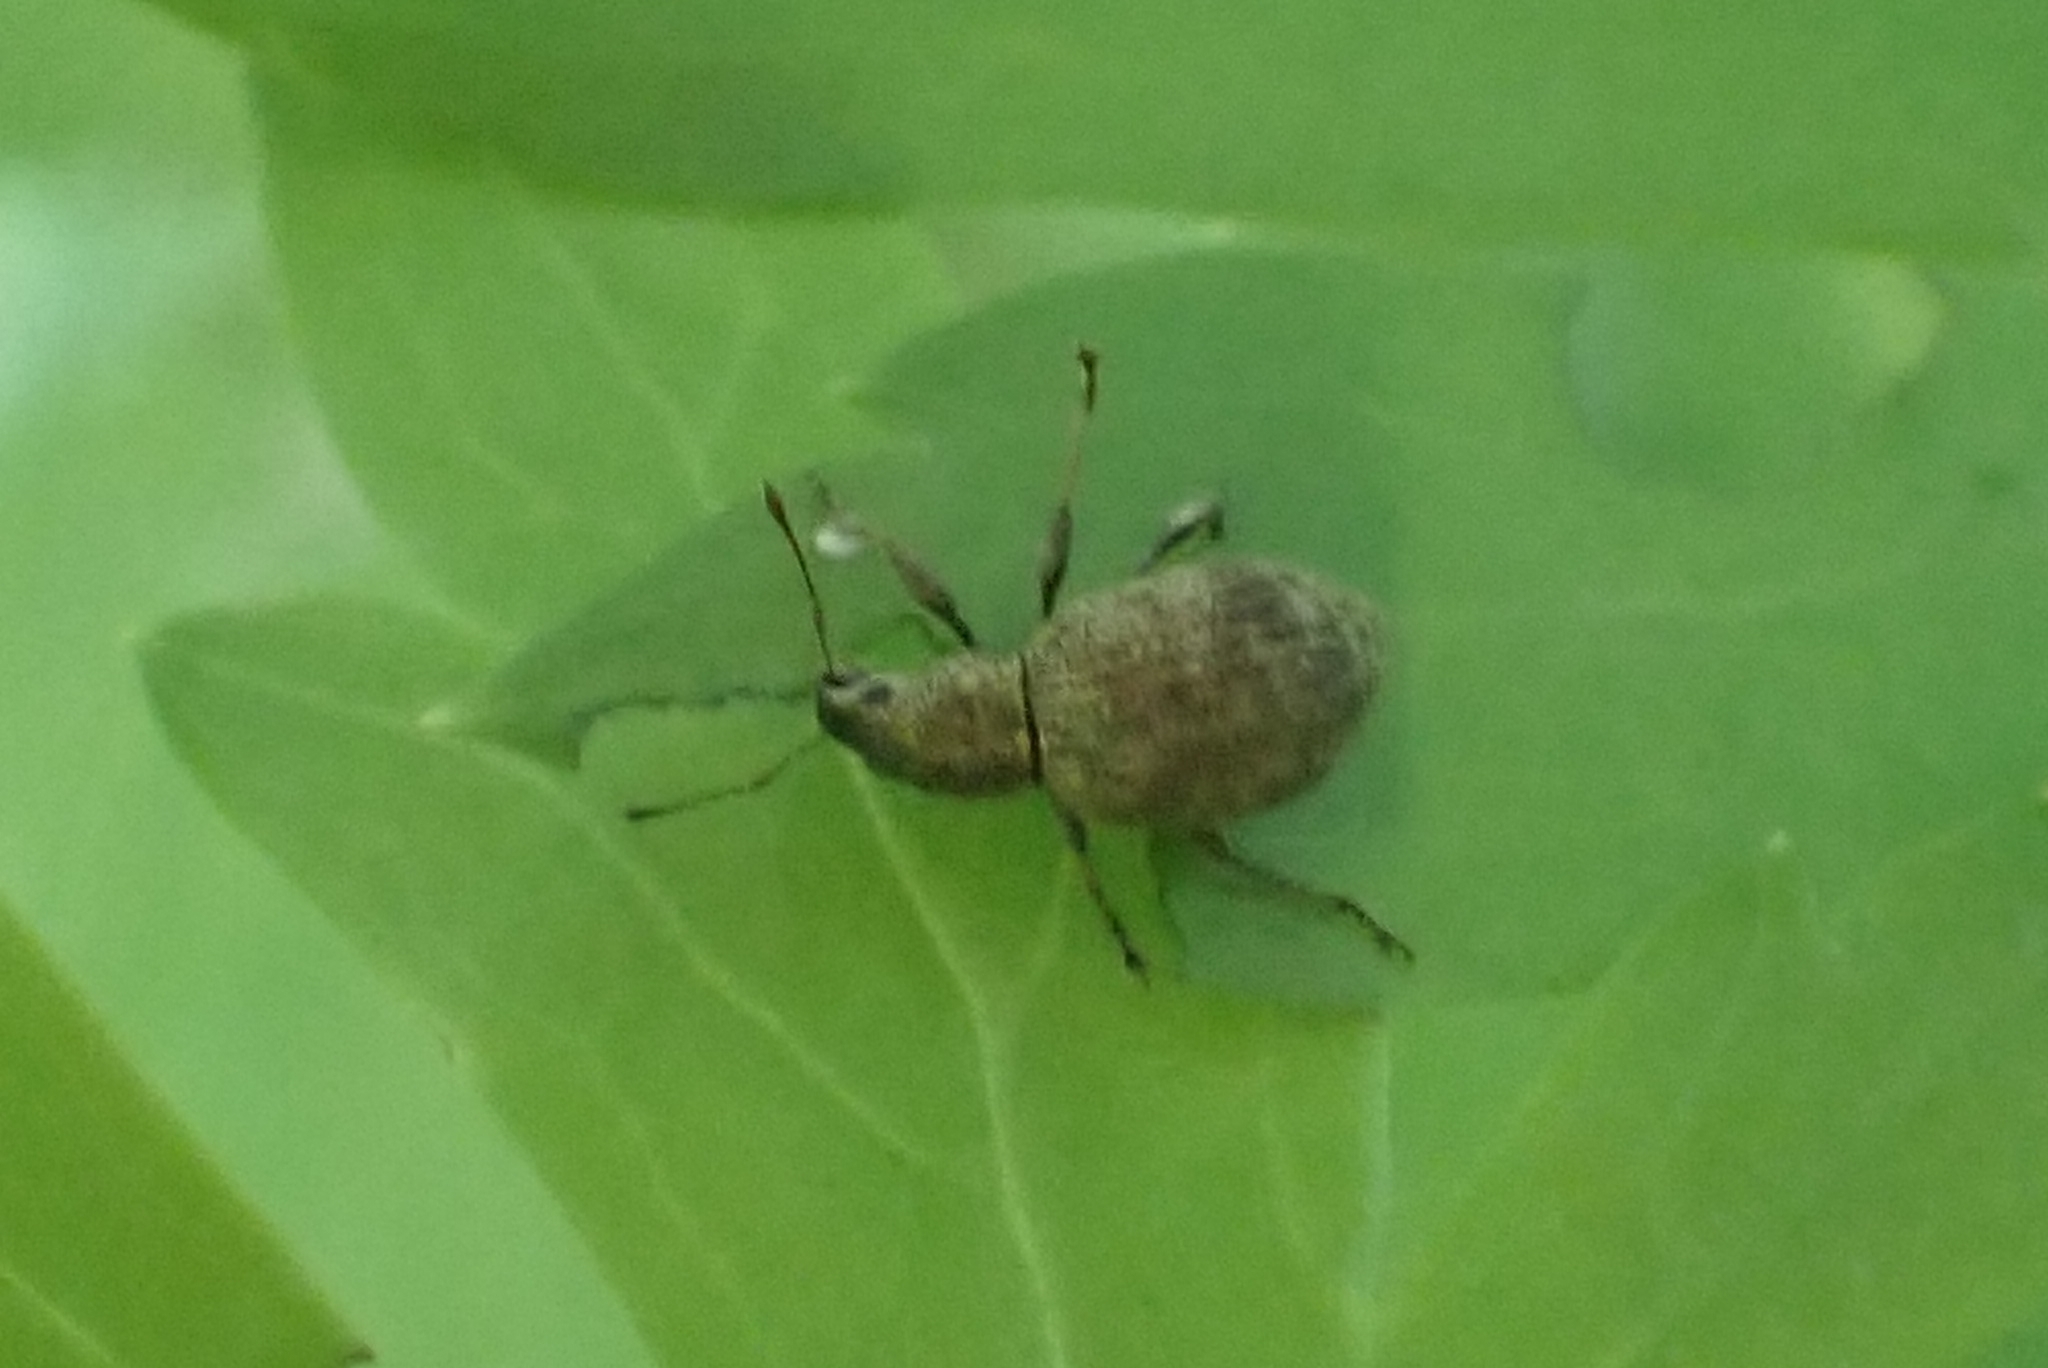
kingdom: Animalia
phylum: Arthropoda
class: Insecta
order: Coleoptera
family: Curculionidae
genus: Sciaphilus
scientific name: Sciaphilus asperatus
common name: Weevil
